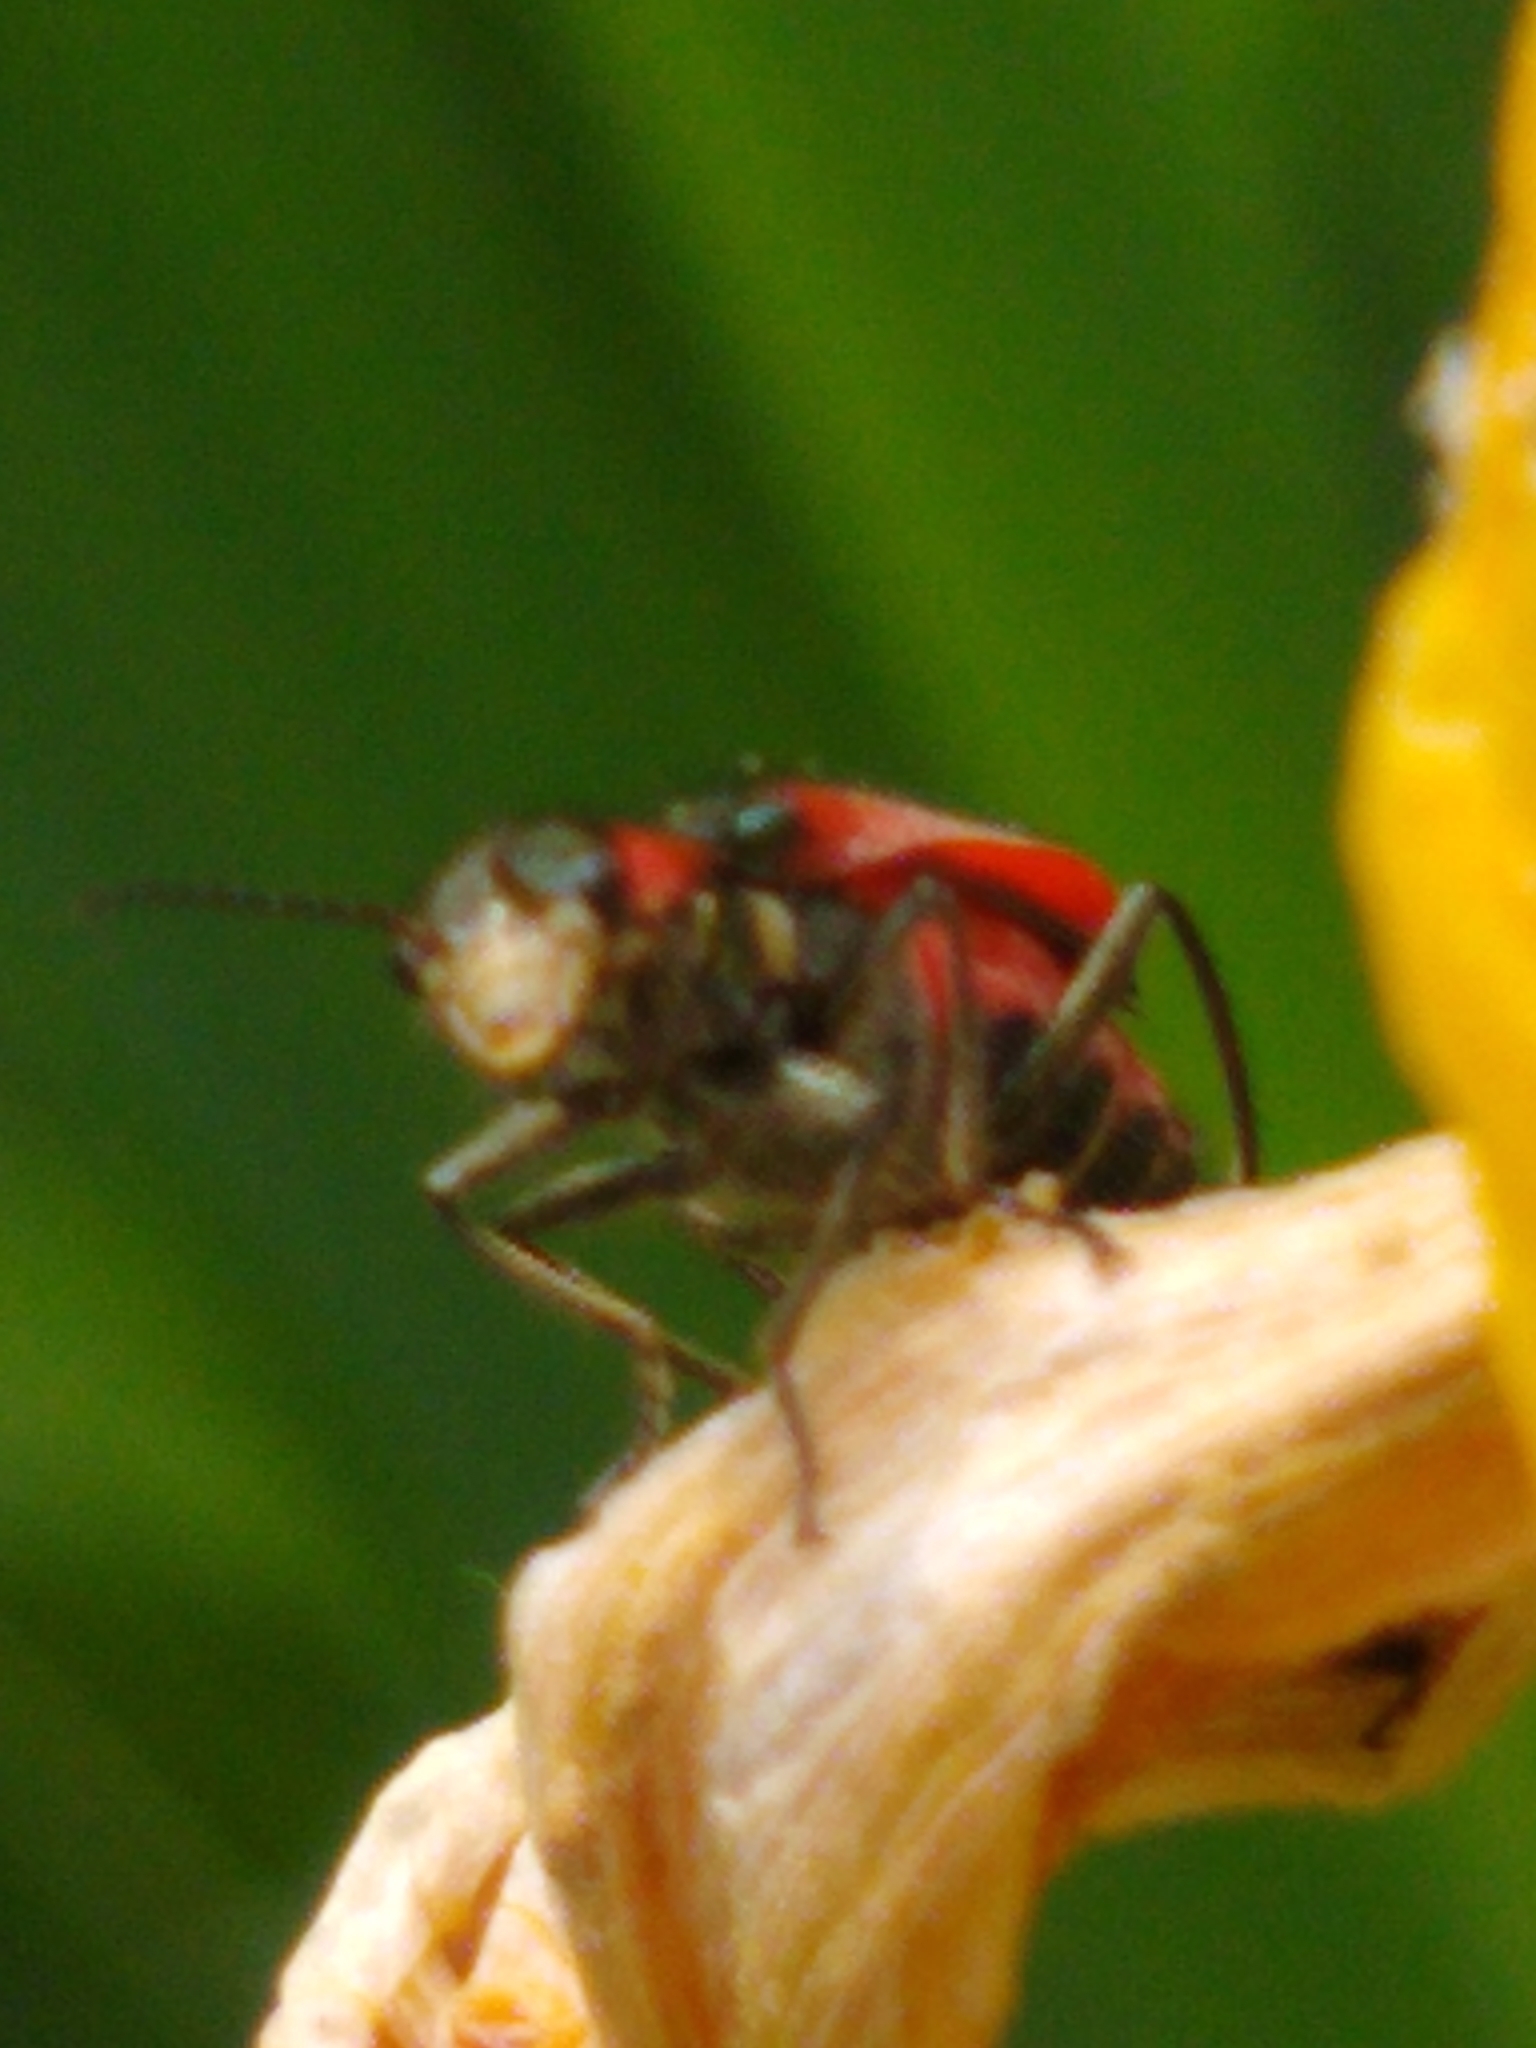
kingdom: Animalia
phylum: Arthropoda
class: Insecta
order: Coleoptera
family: Melyridae
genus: Malachius
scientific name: Malachius aeneus
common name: Scarlet malachite beetle
